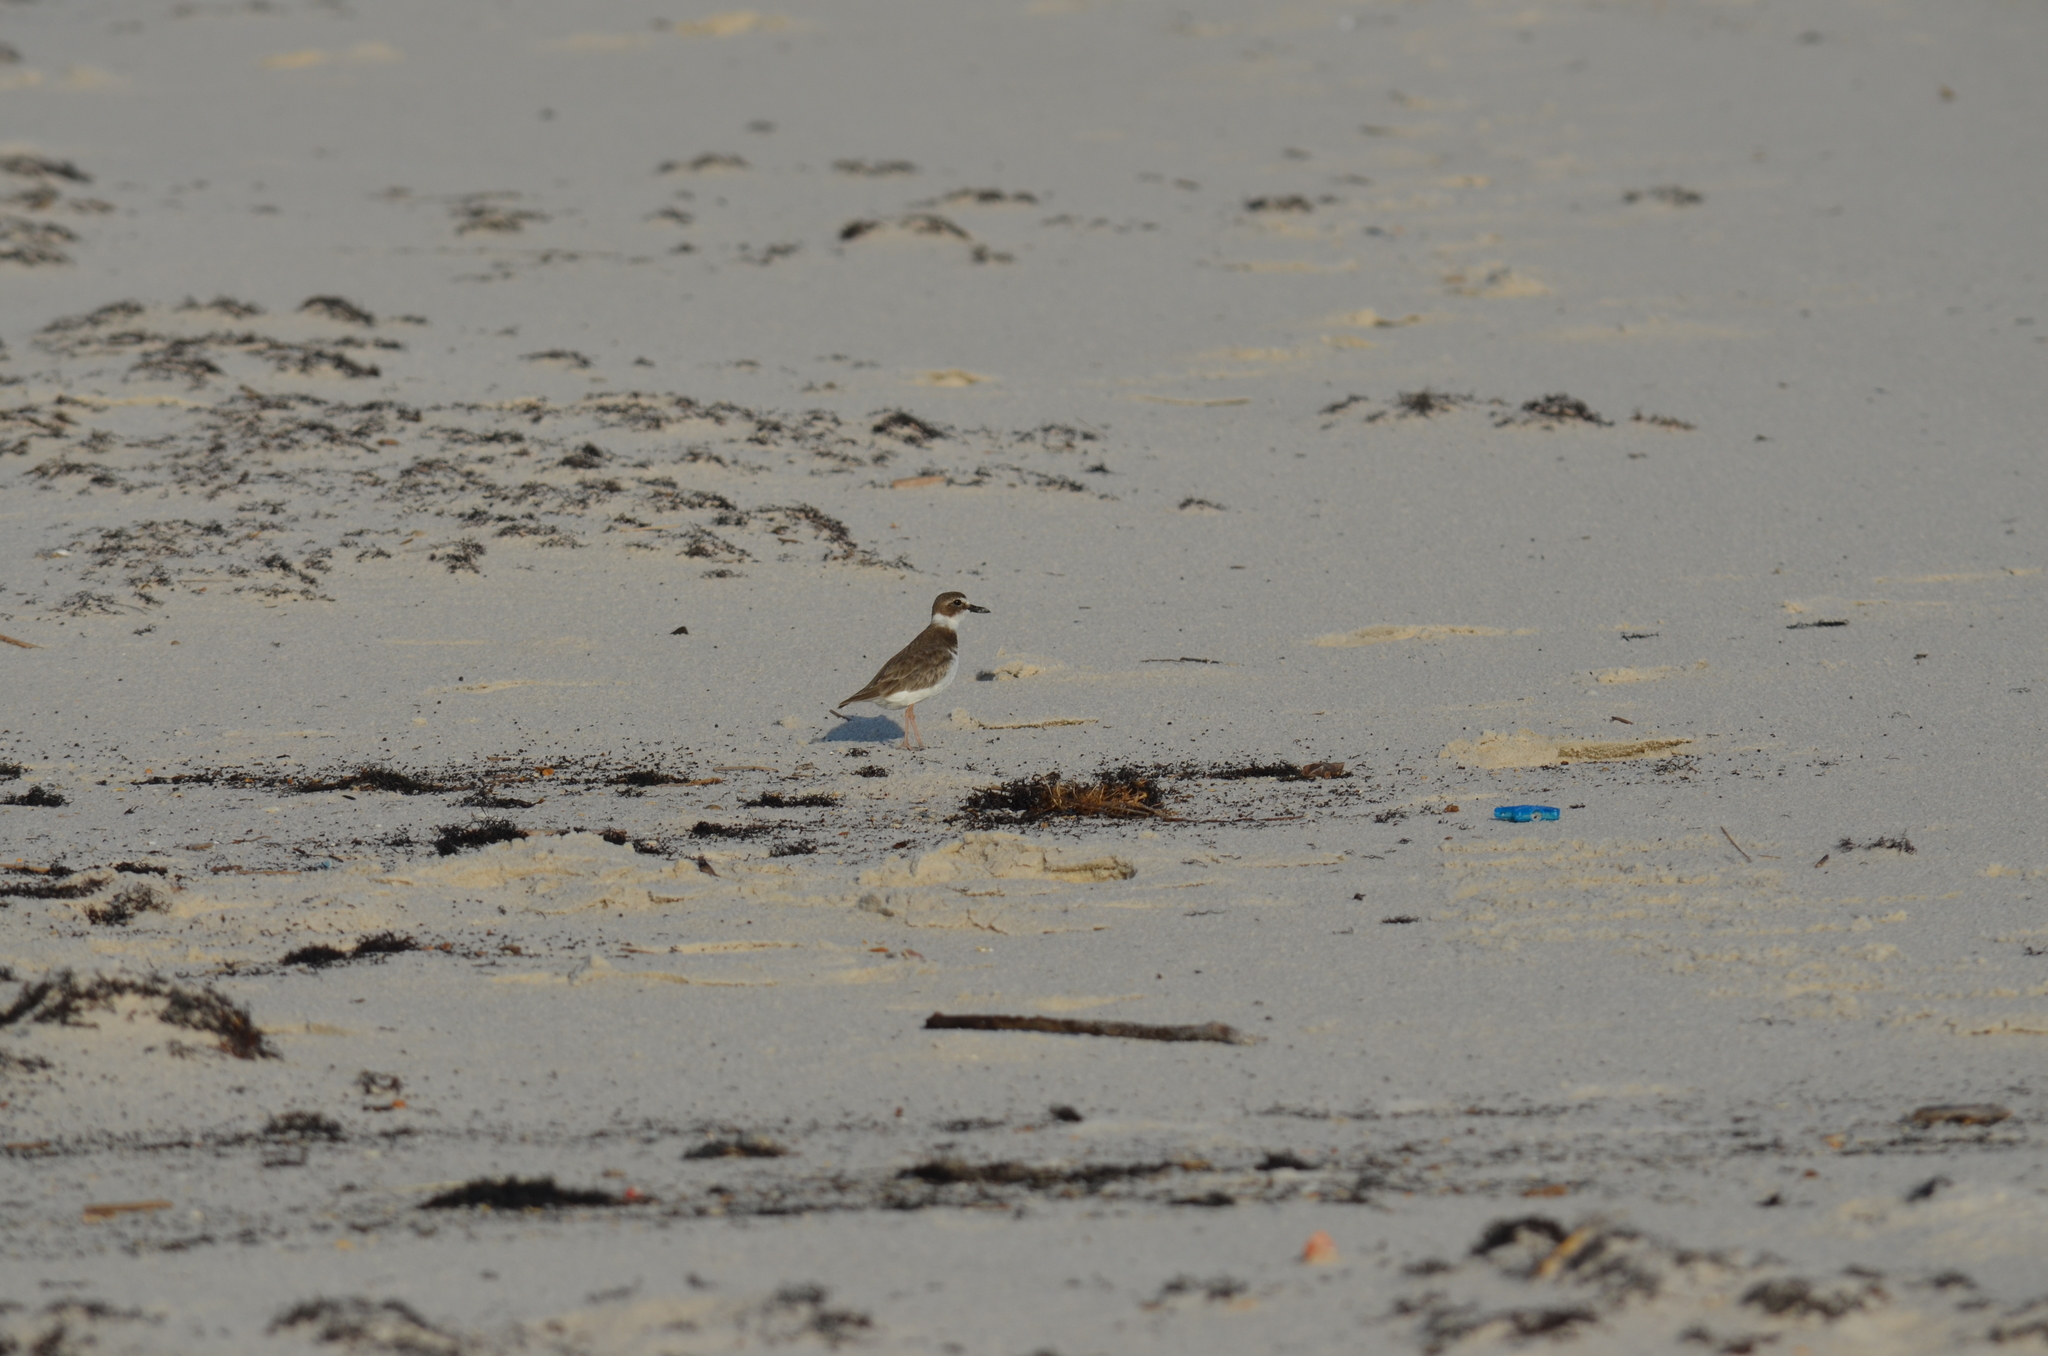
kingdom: Animalia
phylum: Chordata
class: Aves
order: Charadriiformes
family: Charadriidae
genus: Anarhynchus
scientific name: Anarhynchus
